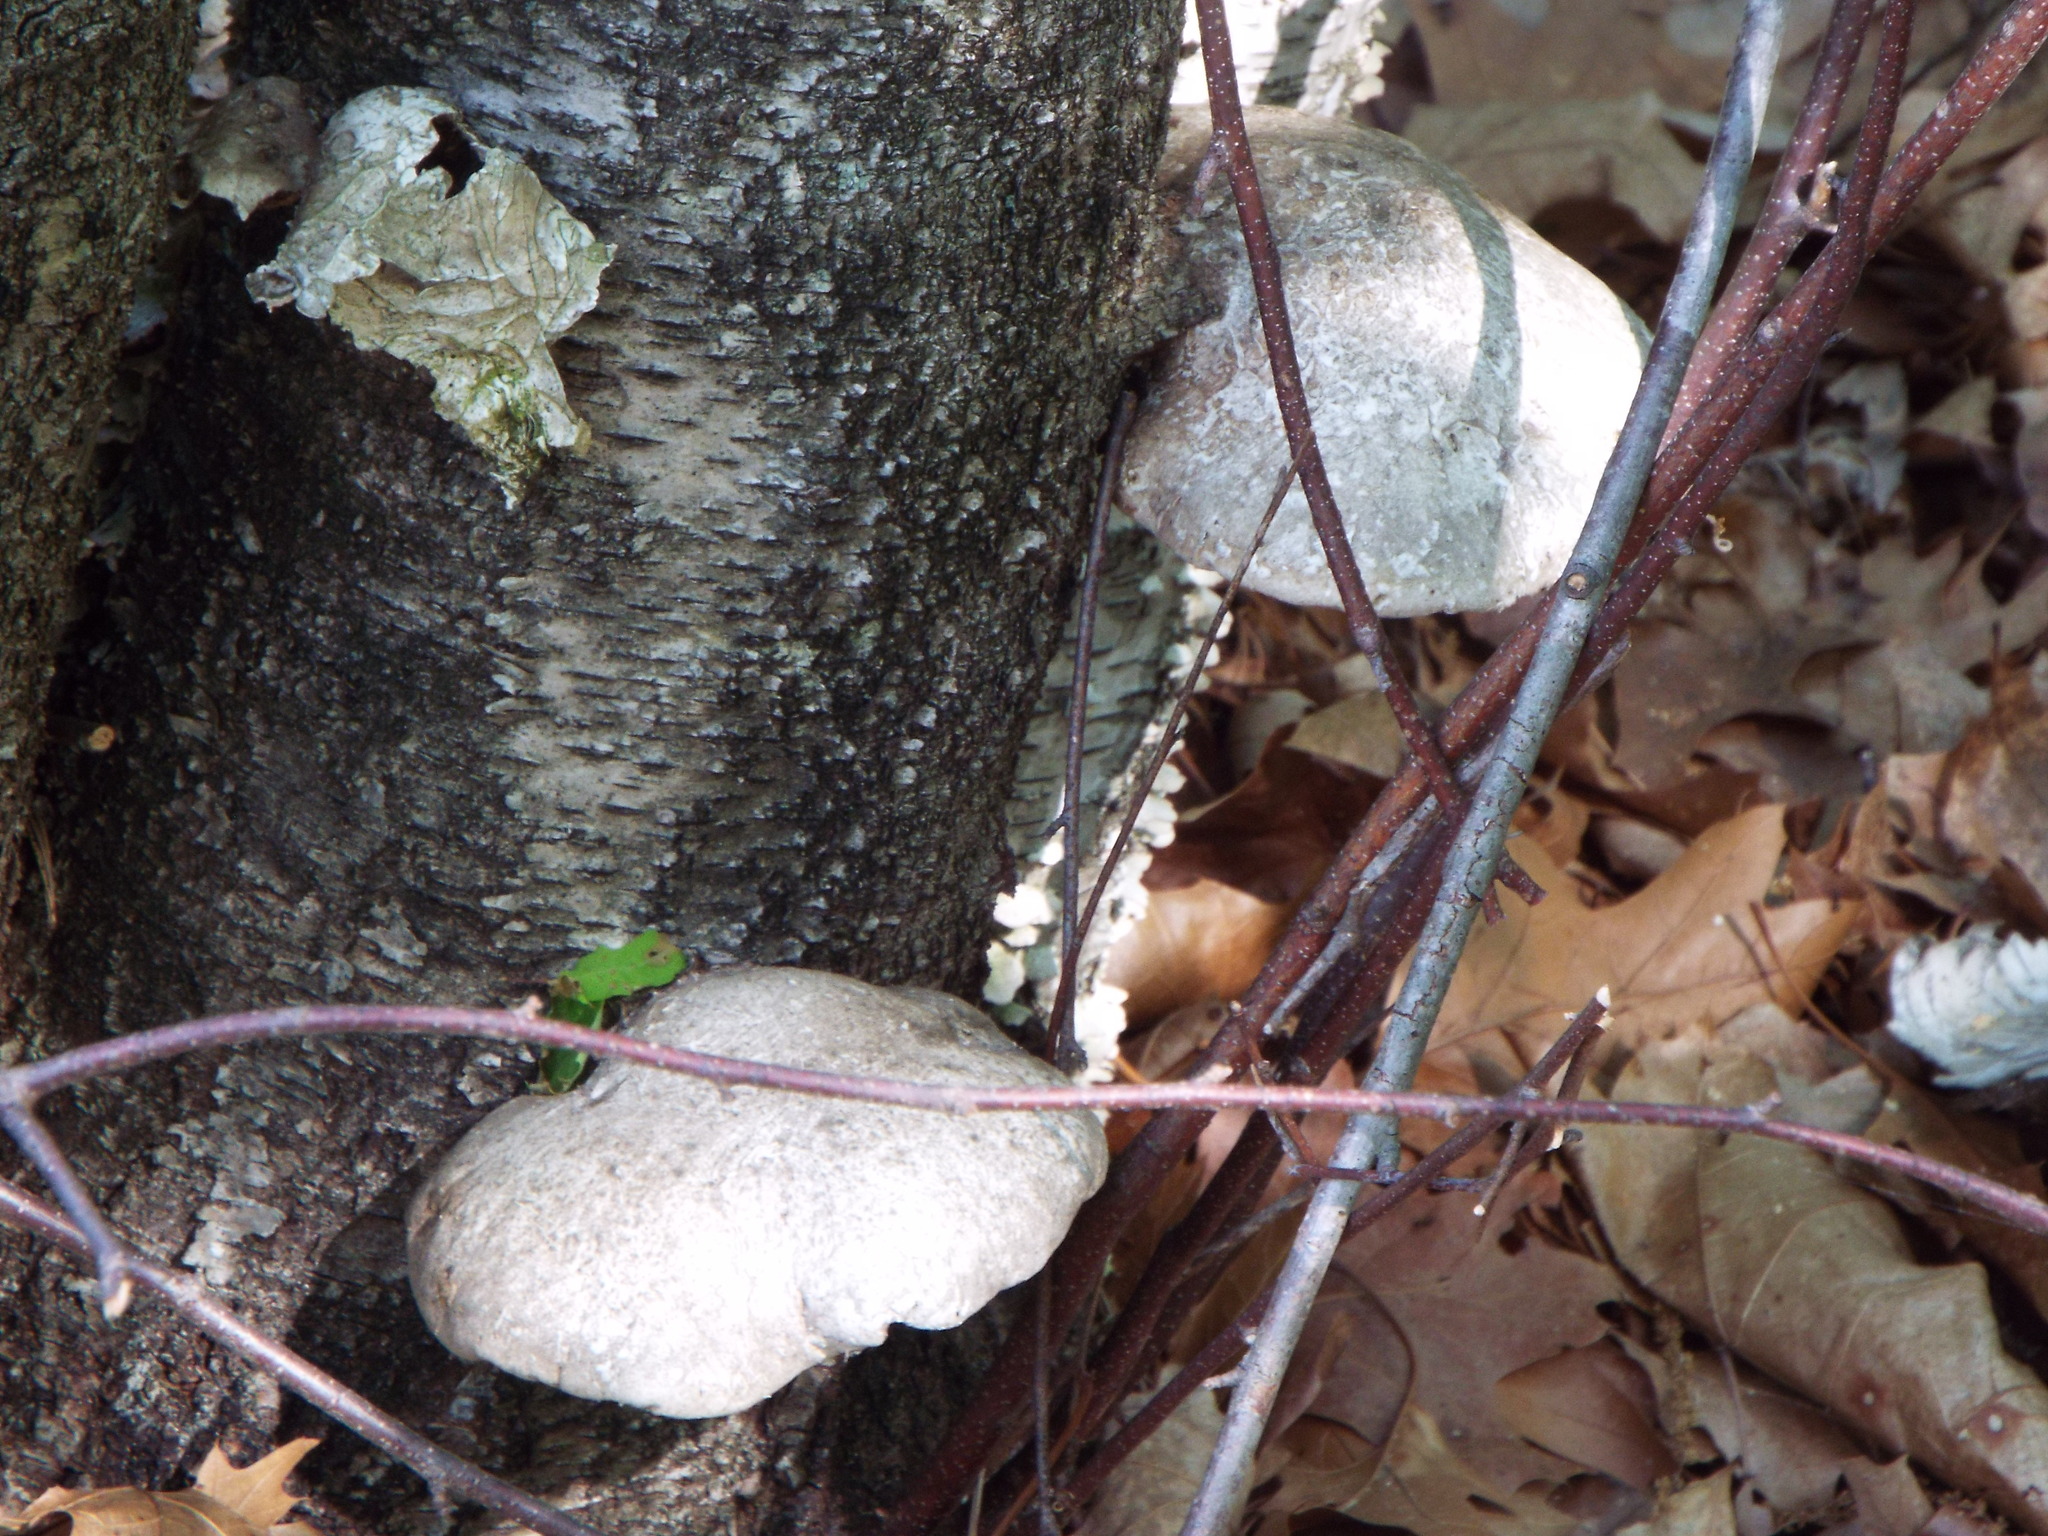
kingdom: Fungi
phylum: Basidiomycota
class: Agaricomycetes
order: Polyporales
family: Fomitopsidaceae
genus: Fomitopsis
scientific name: Fomitopsis betulina
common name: Birch polypore
